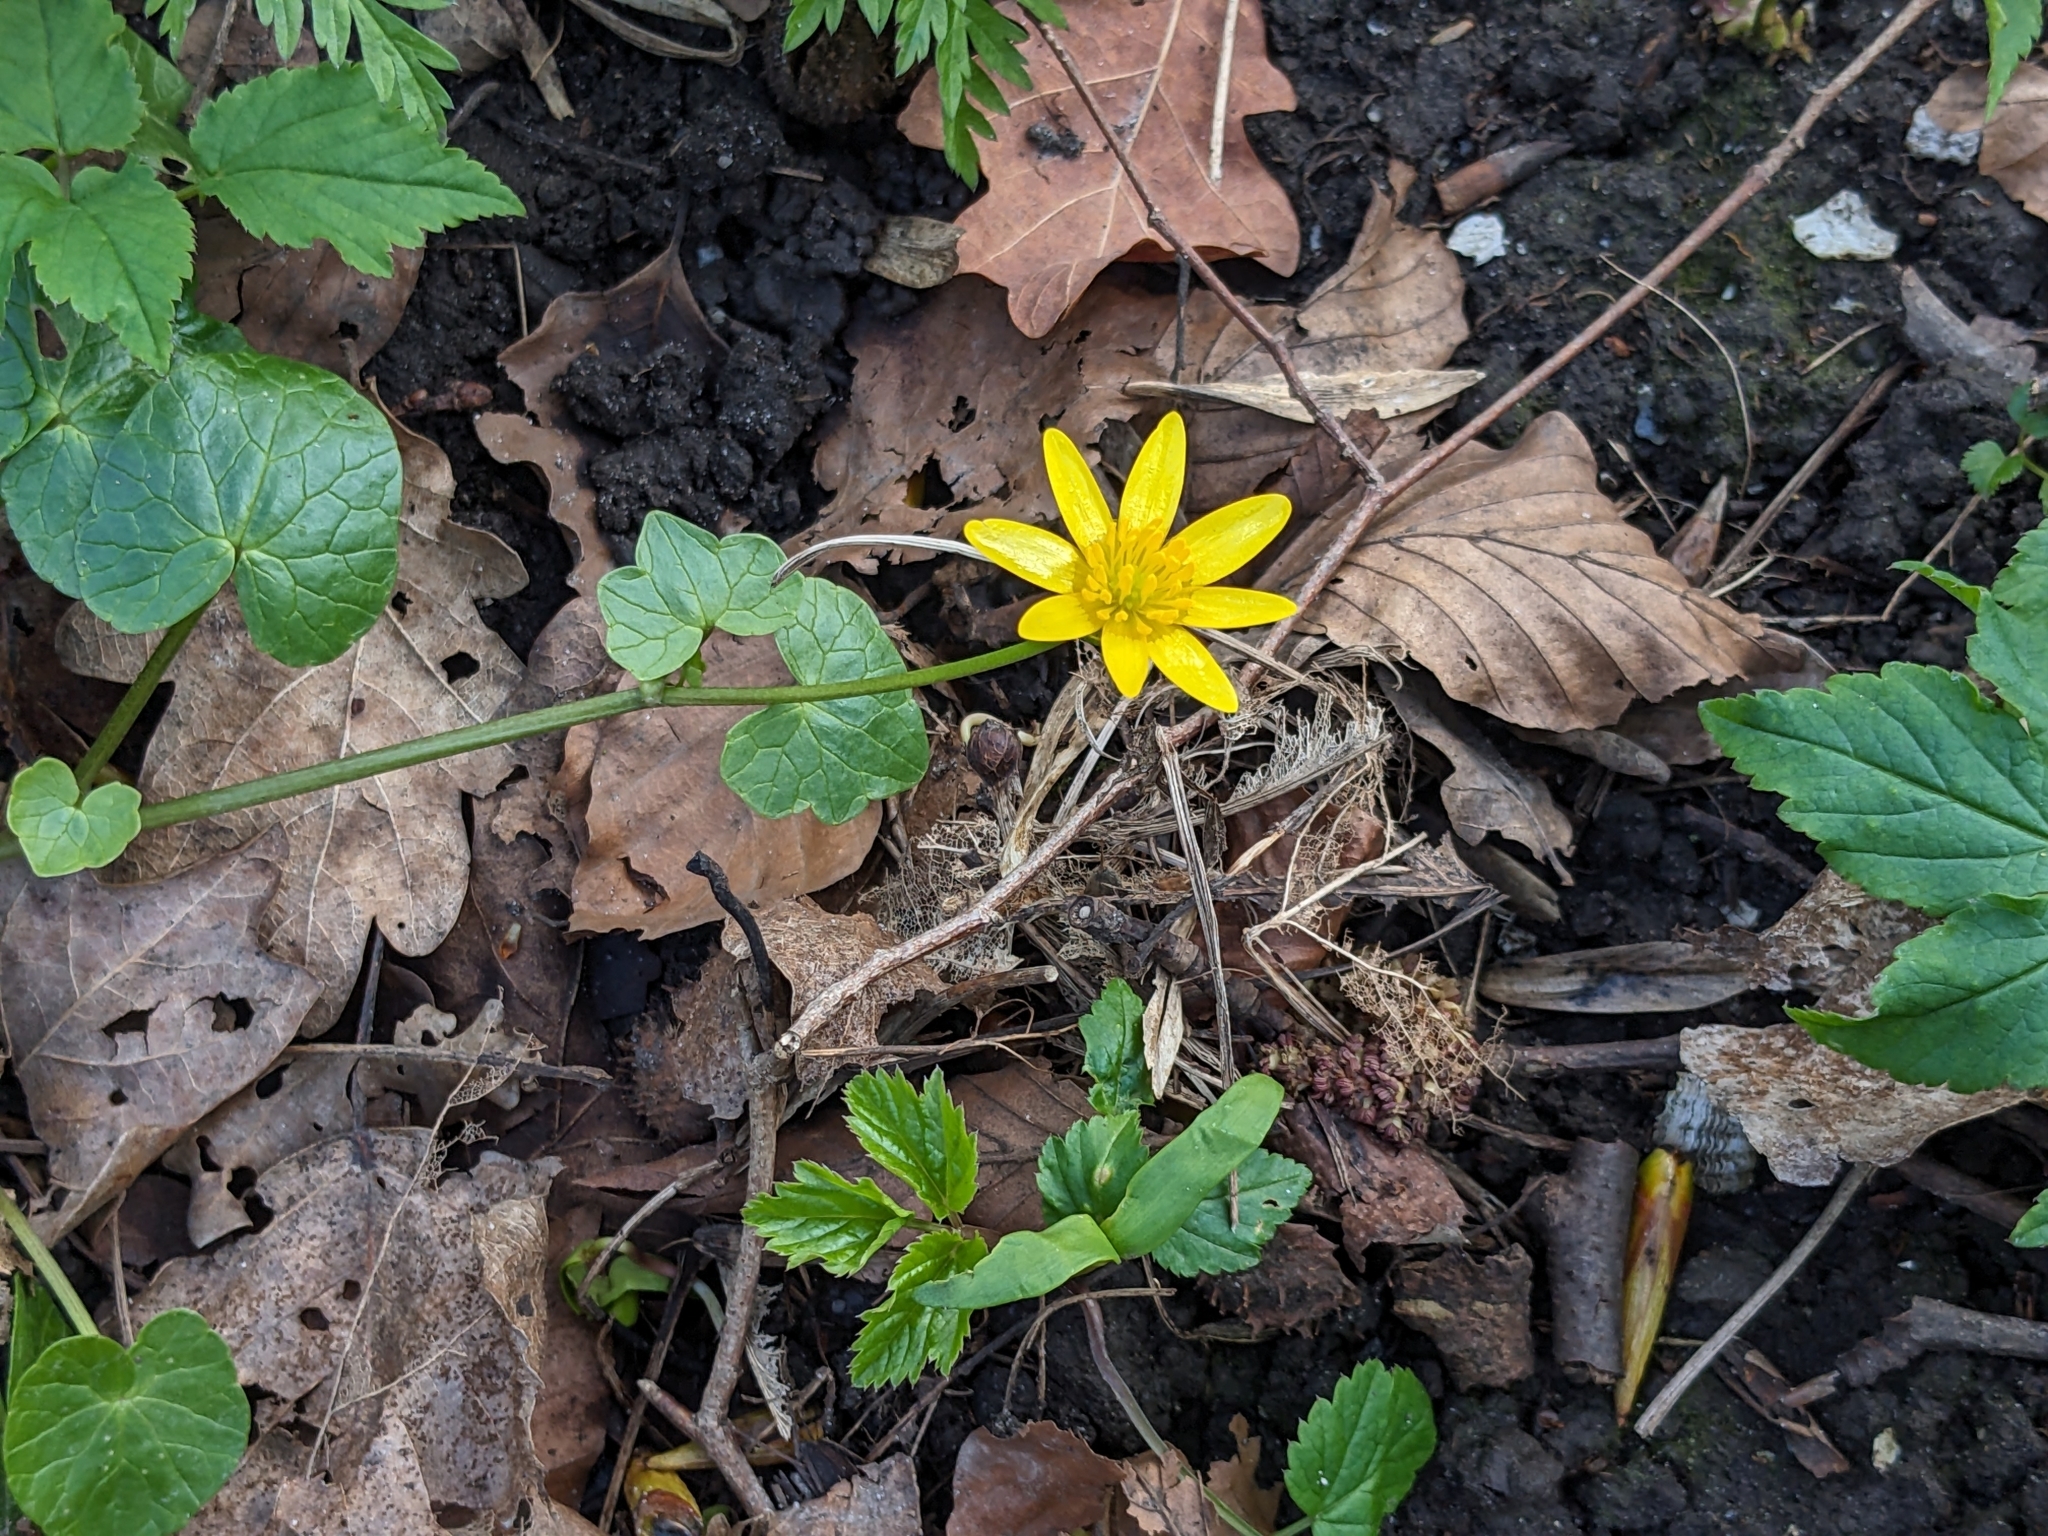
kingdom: Plantae
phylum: Tracheophyta
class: Magnoliopsida
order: Ranunculales
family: Ranunculaceae
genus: Ficaria
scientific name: Ficaria verna
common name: Lesser celandine
